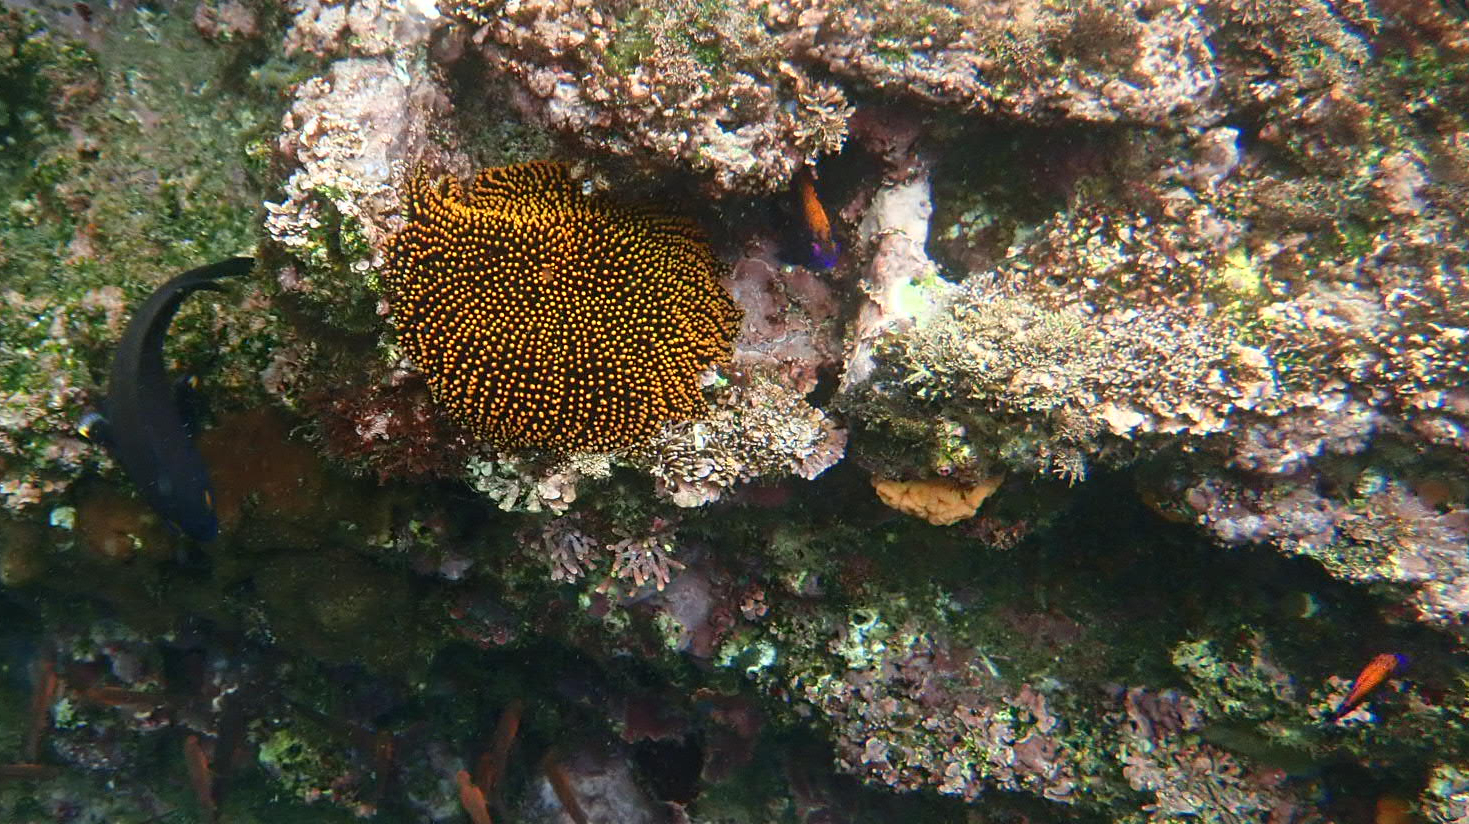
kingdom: Animalia
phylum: Chordata
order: Perciformes
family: Pomacentridae
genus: Stegastes
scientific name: Stegastes beebei
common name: Galapagos ringtail damselfish
